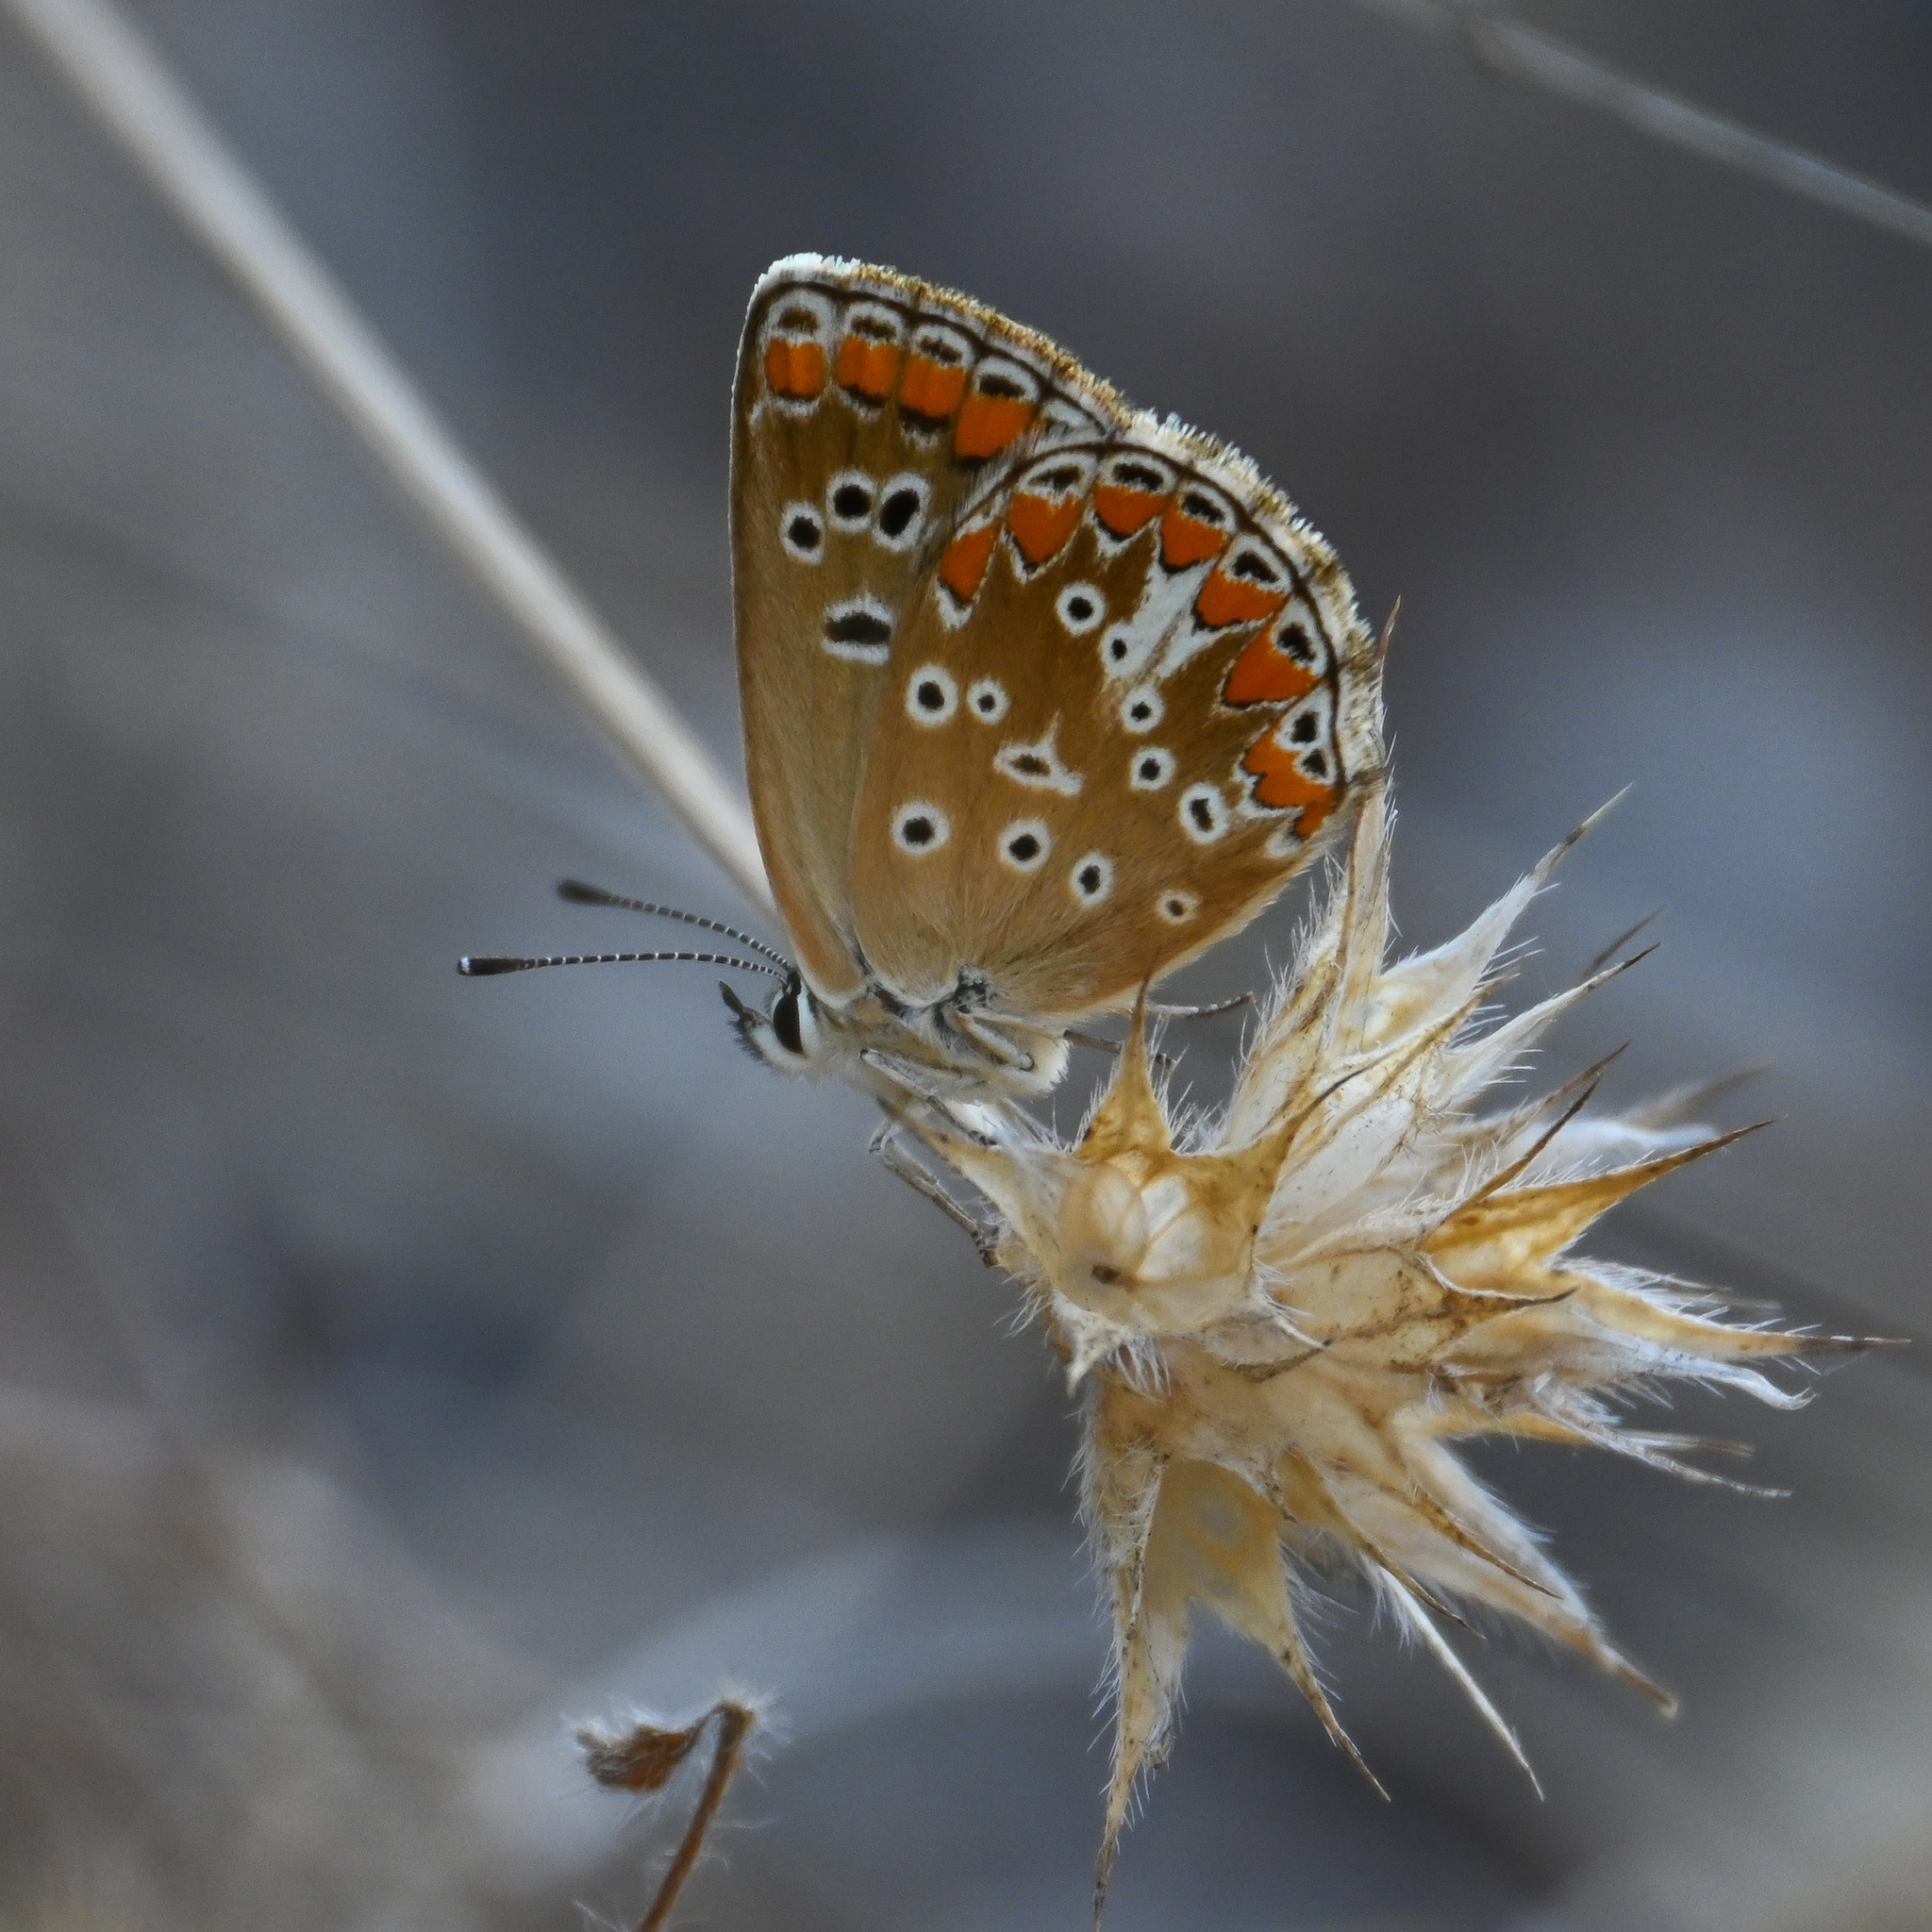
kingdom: Animalia
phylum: Arthropoda
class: Insecta
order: Lepidoptera
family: Lycaenidae
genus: Aricia
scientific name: Aricia agestis
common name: Brown argus
